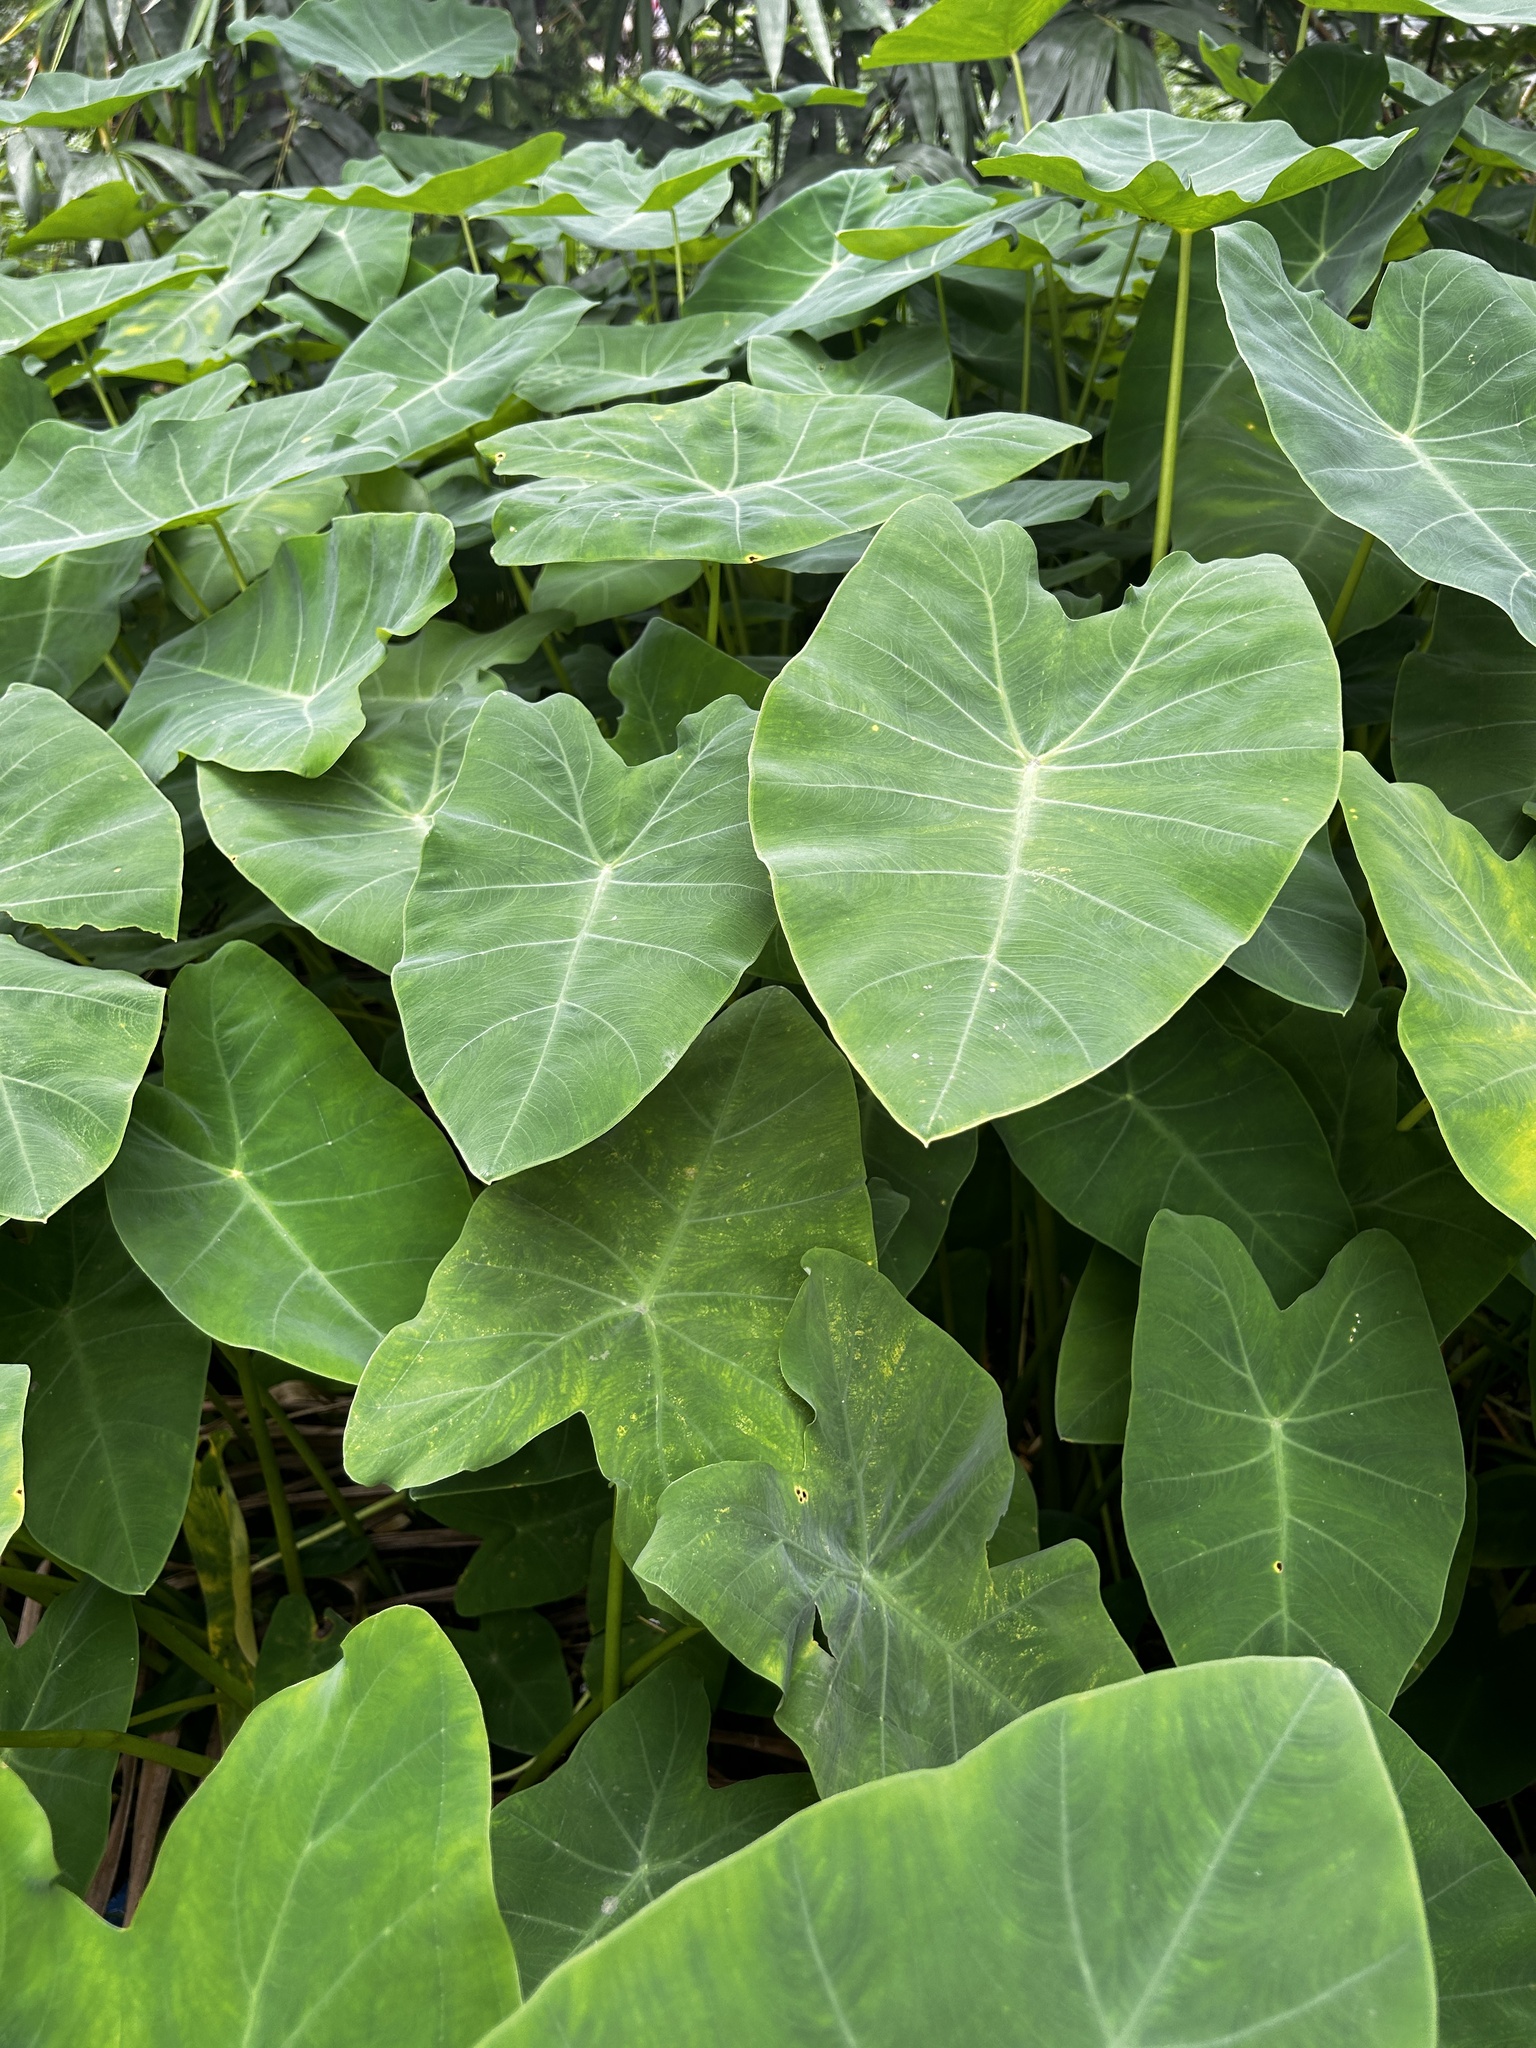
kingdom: Plantae
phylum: Tracheophyta
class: Liliopsida
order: Alismatales
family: Araceae
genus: Colocasia
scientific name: Colocasia esculenta
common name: Taro
